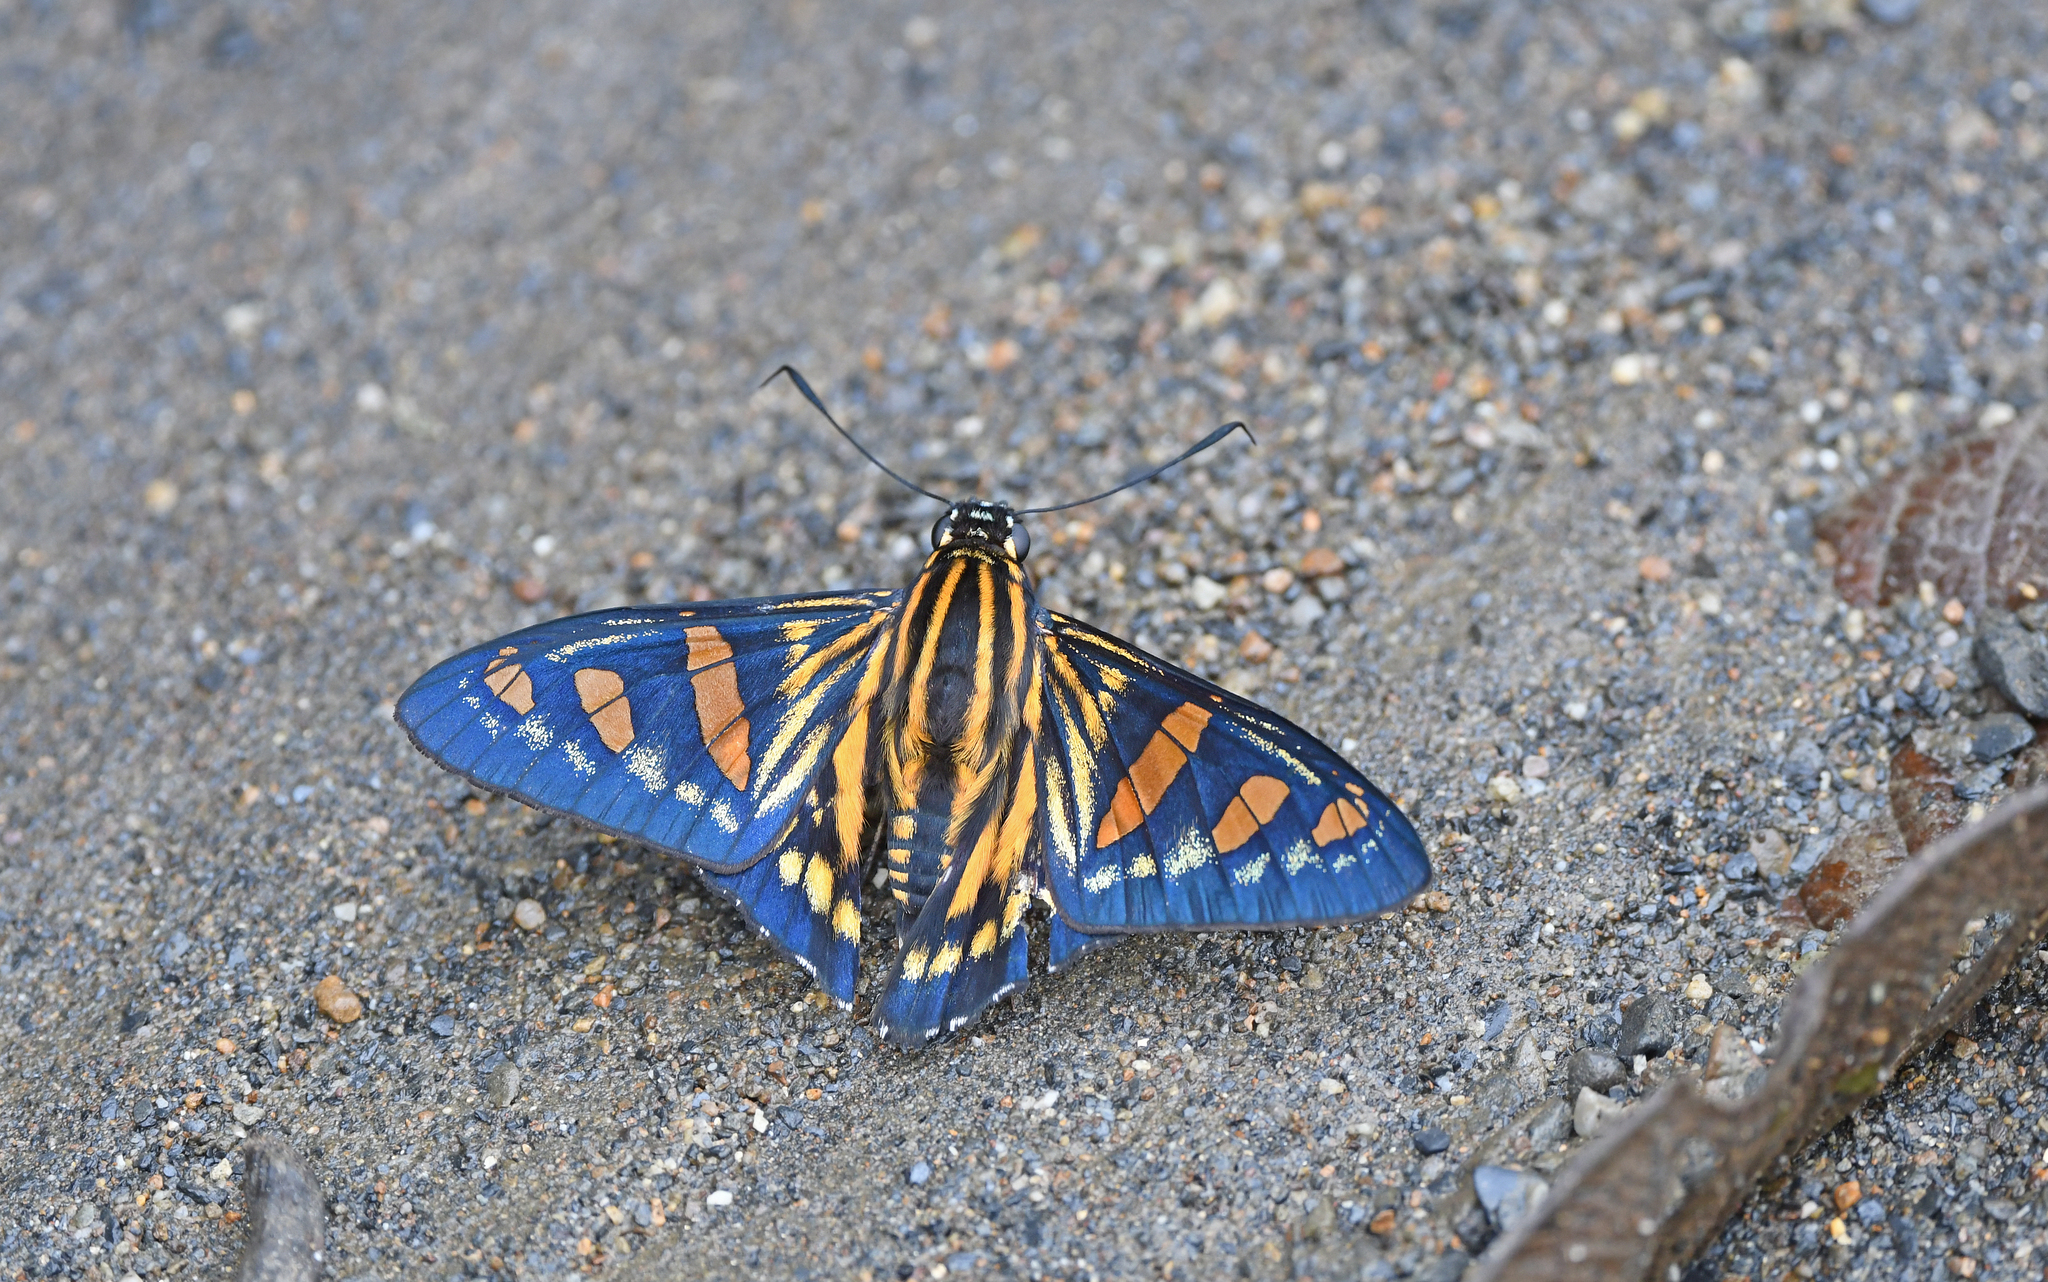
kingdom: Animalia
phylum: Arthropoda
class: Insecta
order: Lepidoptera
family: Hesperiidae
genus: Phocides
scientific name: Phocides yokhara
